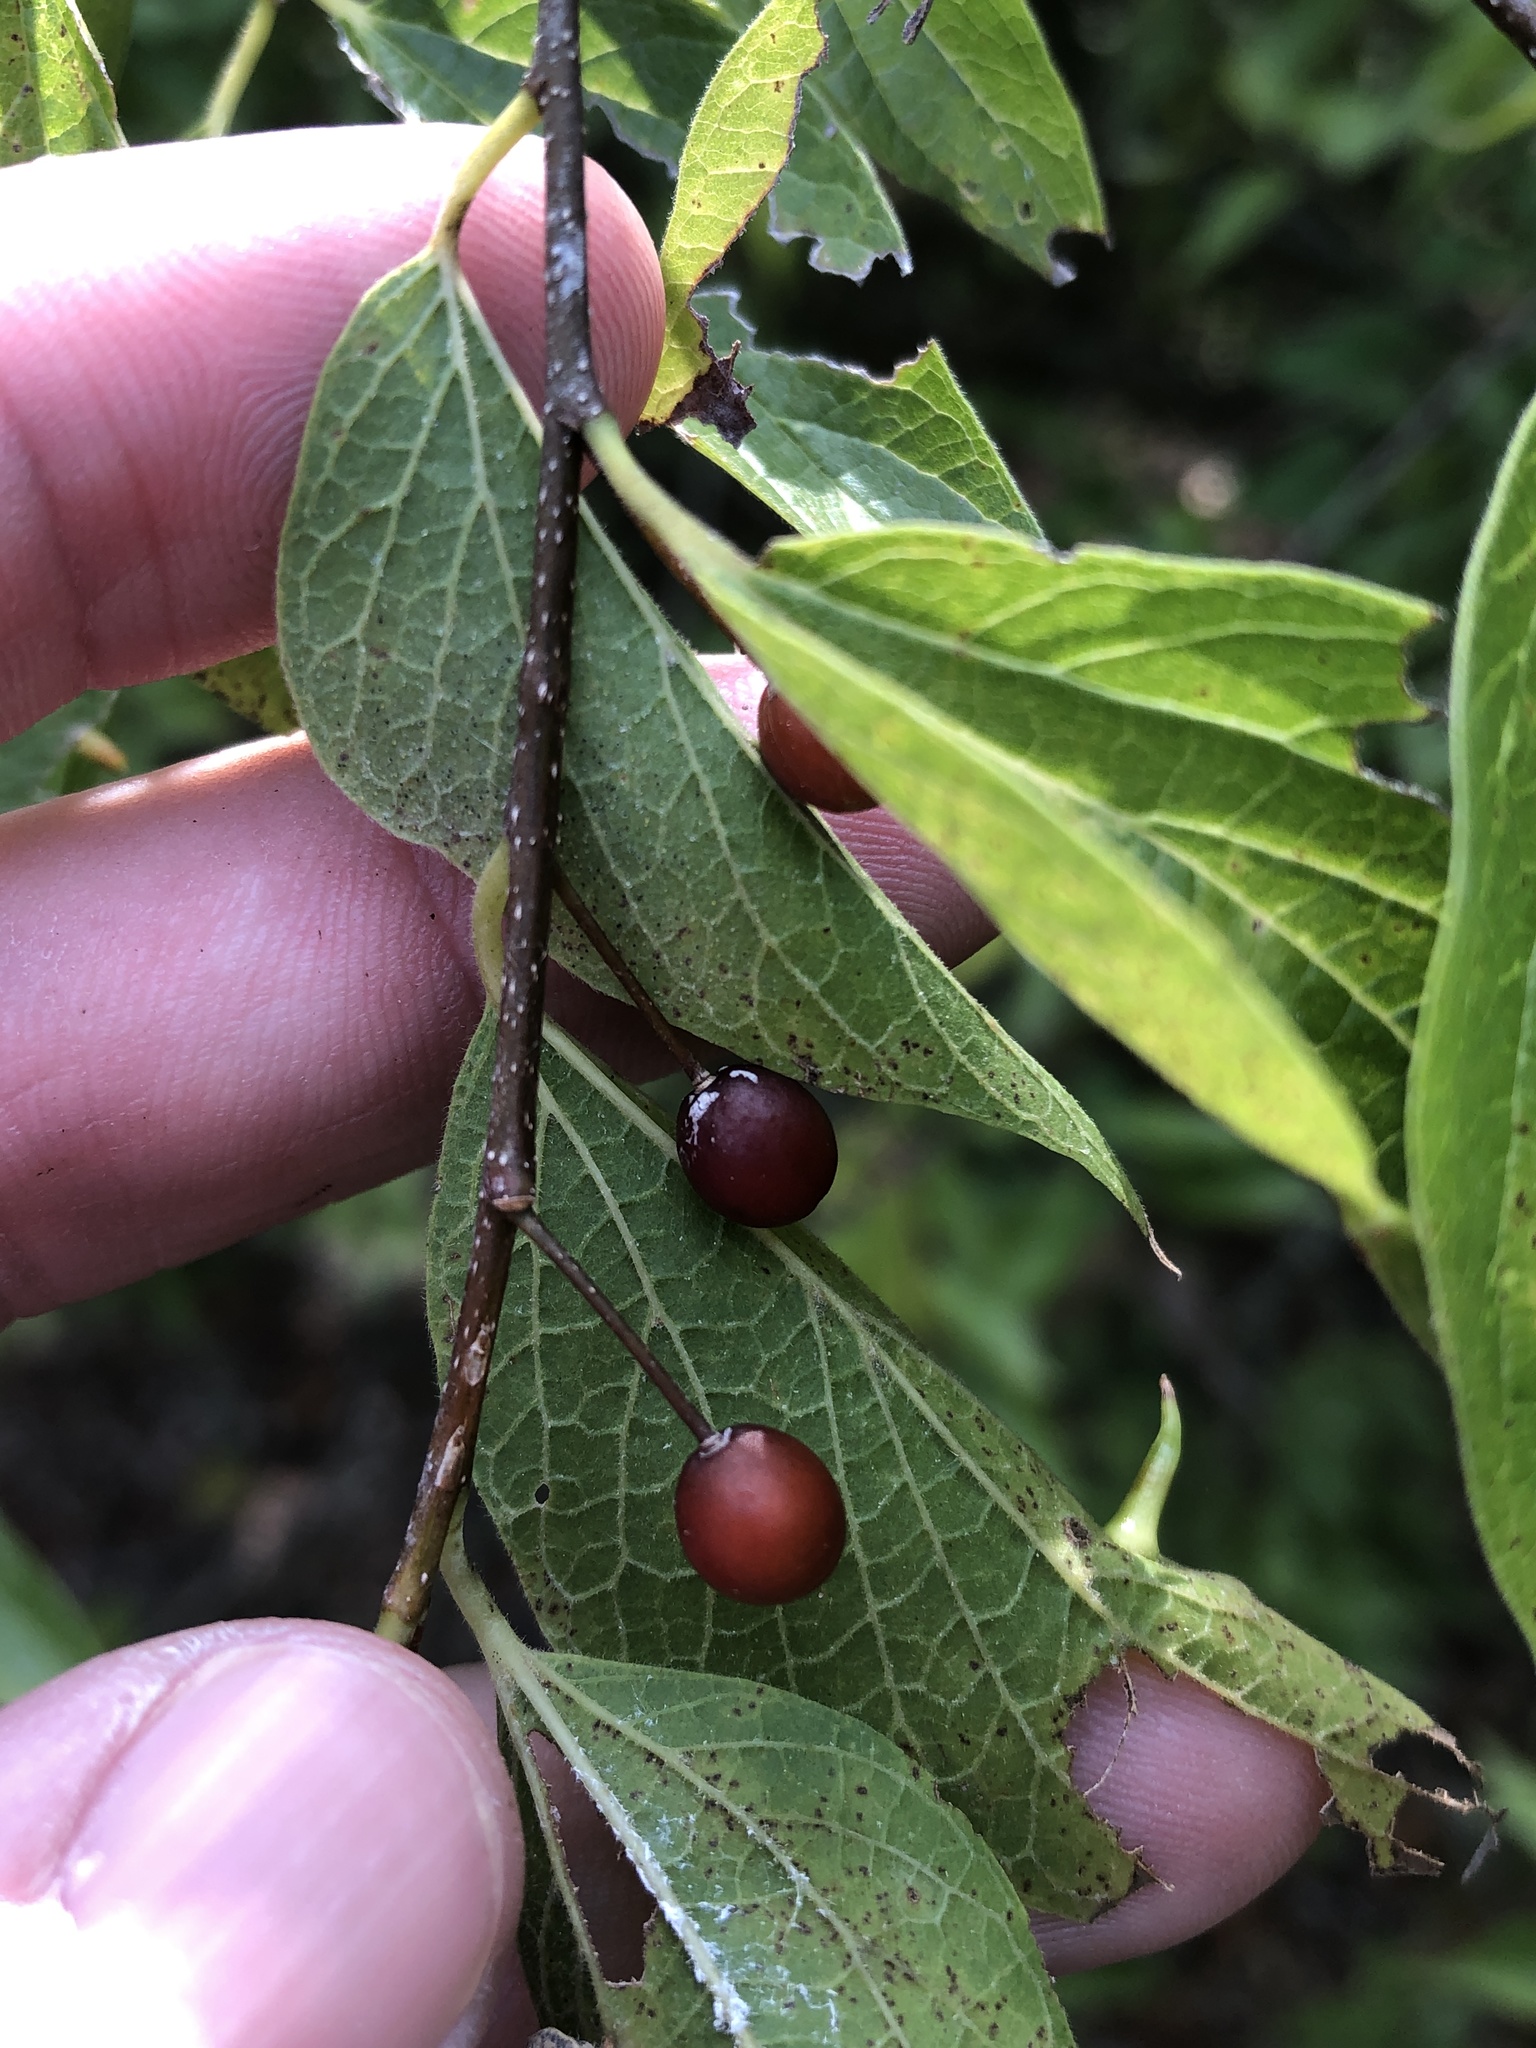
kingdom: Plantae
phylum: Tracheophyta
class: Magnoliopsida
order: Rosales
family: Cannabaceae
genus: Celtis
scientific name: Celtis laevigata
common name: Sugarberry
